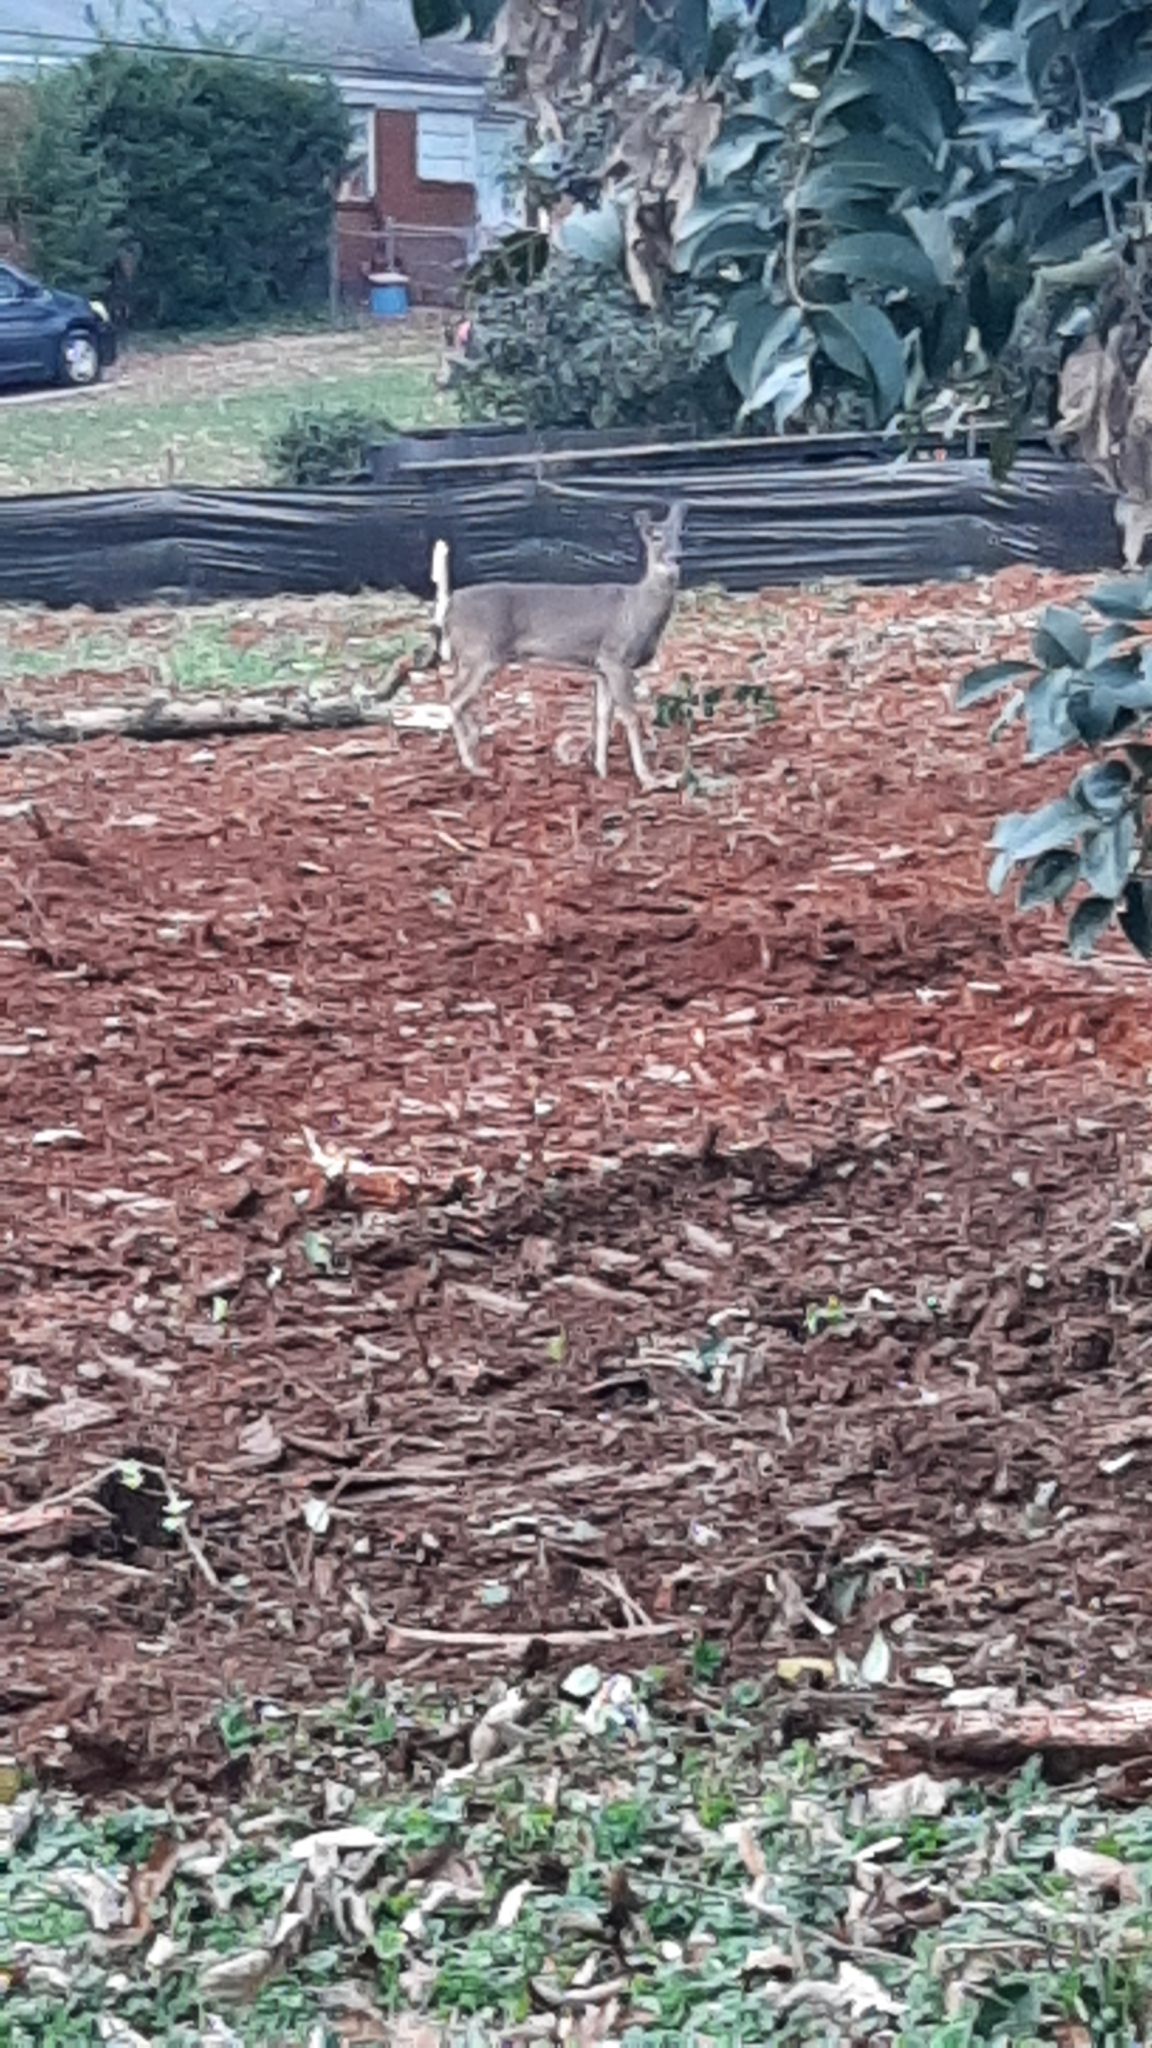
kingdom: Animalia
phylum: Chordata
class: Mammalia
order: Artiodactyla
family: Cervidae
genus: Odocoileus
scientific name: Odocoileus virginianus
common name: White-tailed deer
